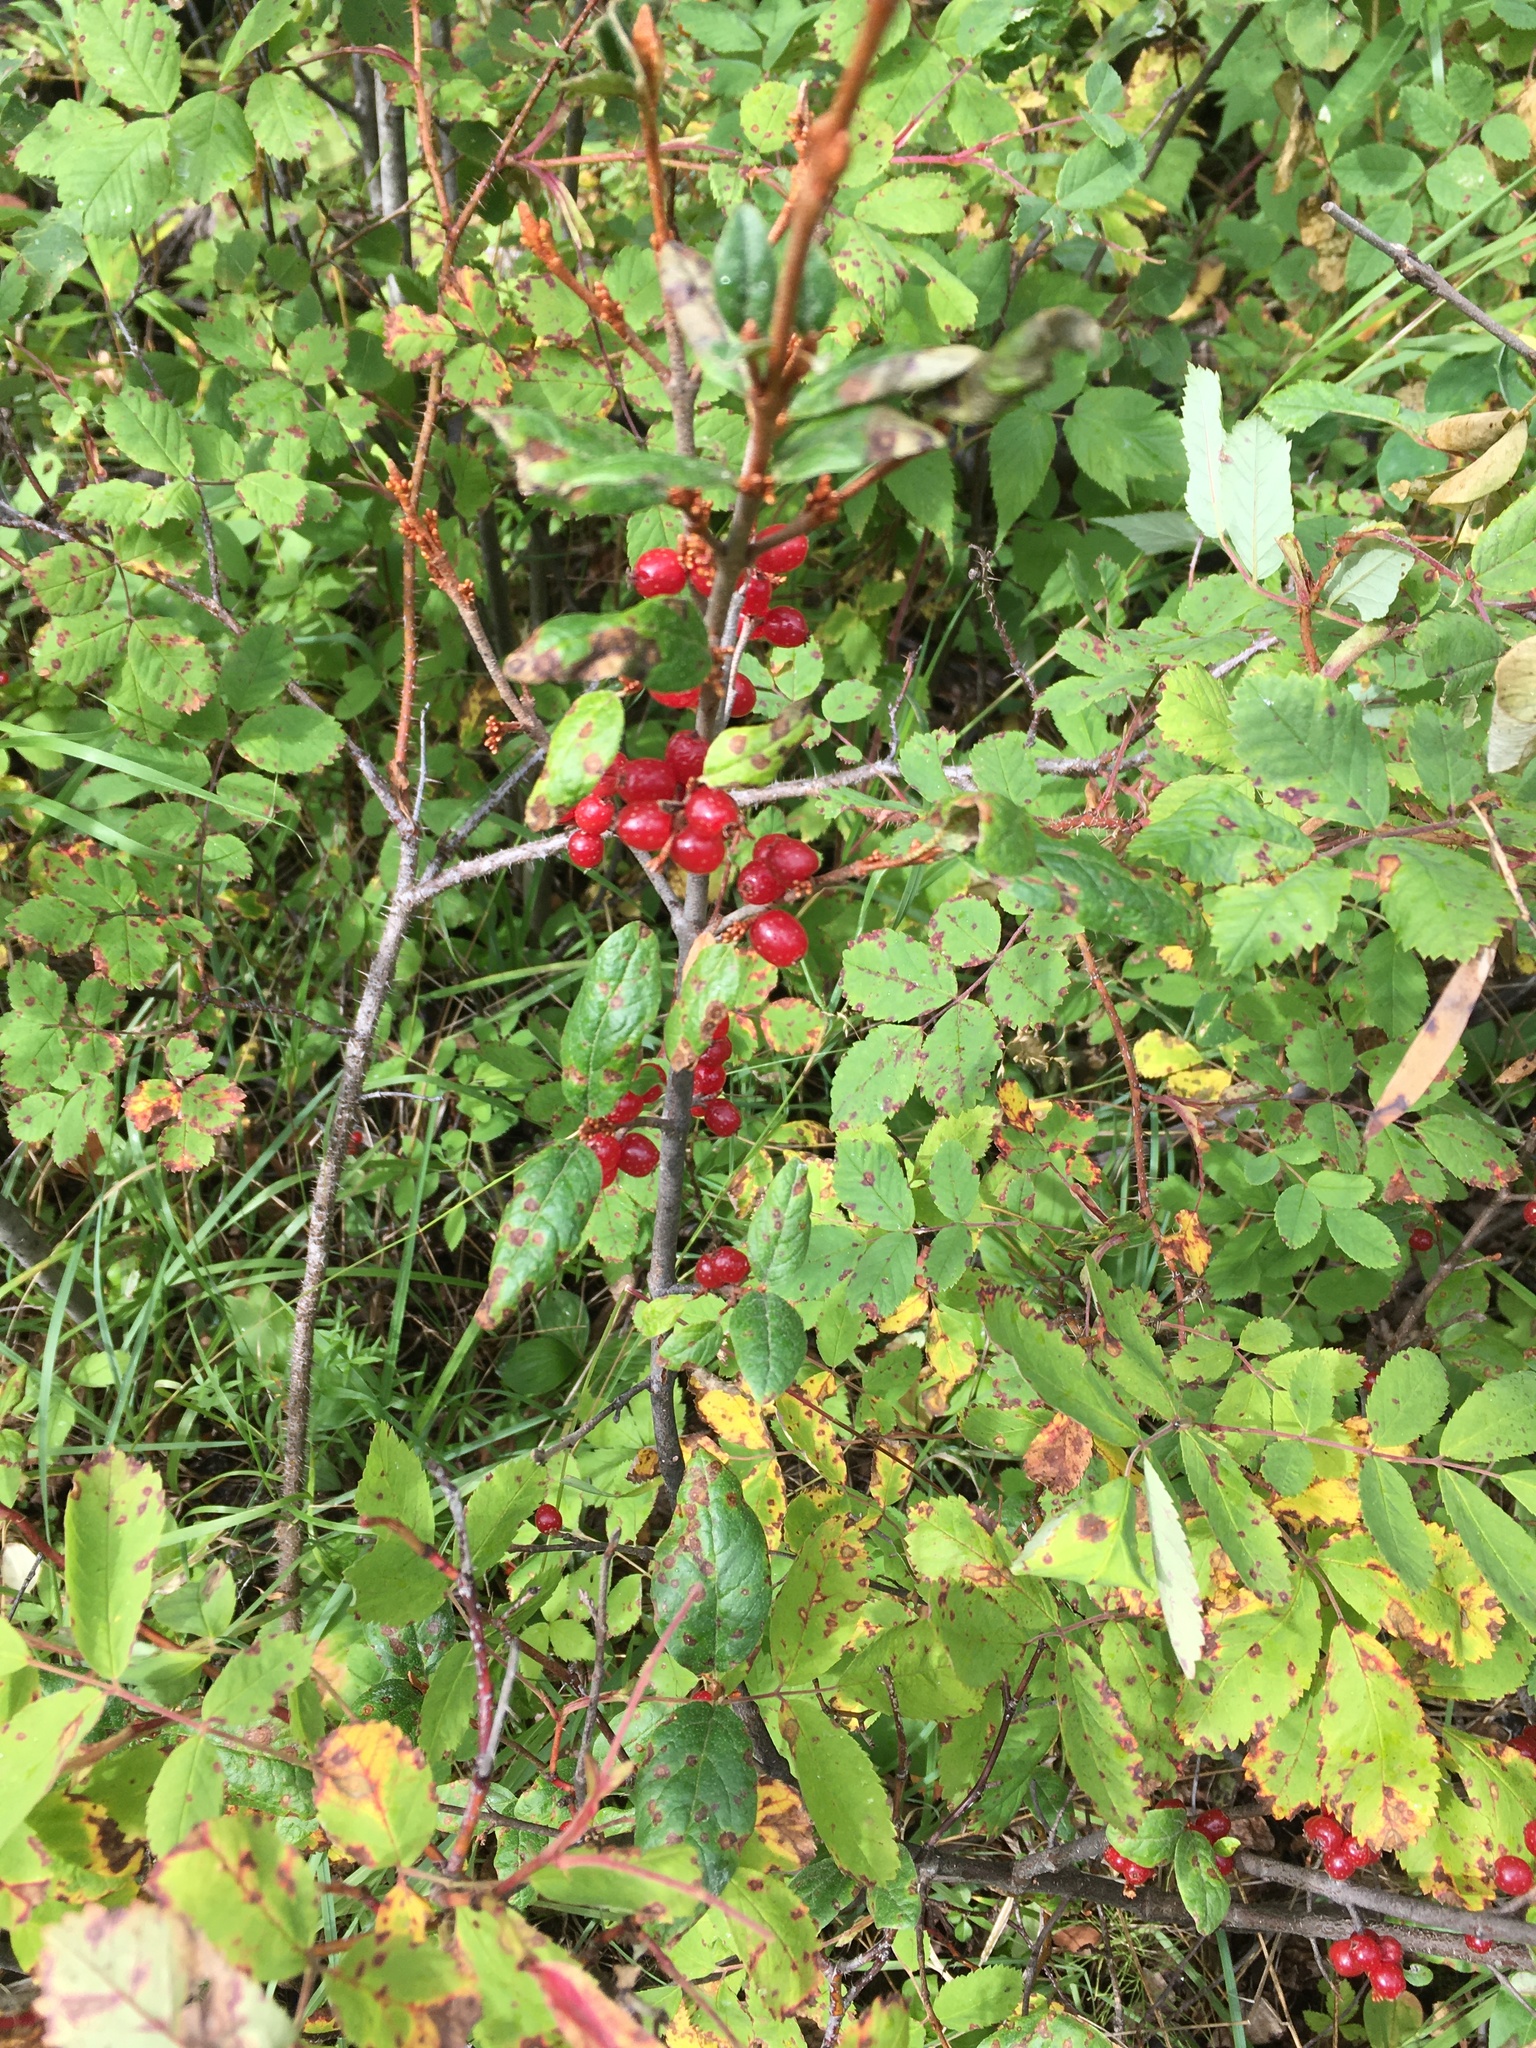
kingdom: Plantae
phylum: Tracheophyta
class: Magnoliopsida
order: Rosales
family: Elaeagnaceae
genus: Shepherdia
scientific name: Shepherdia canadensis
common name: Soapberry
